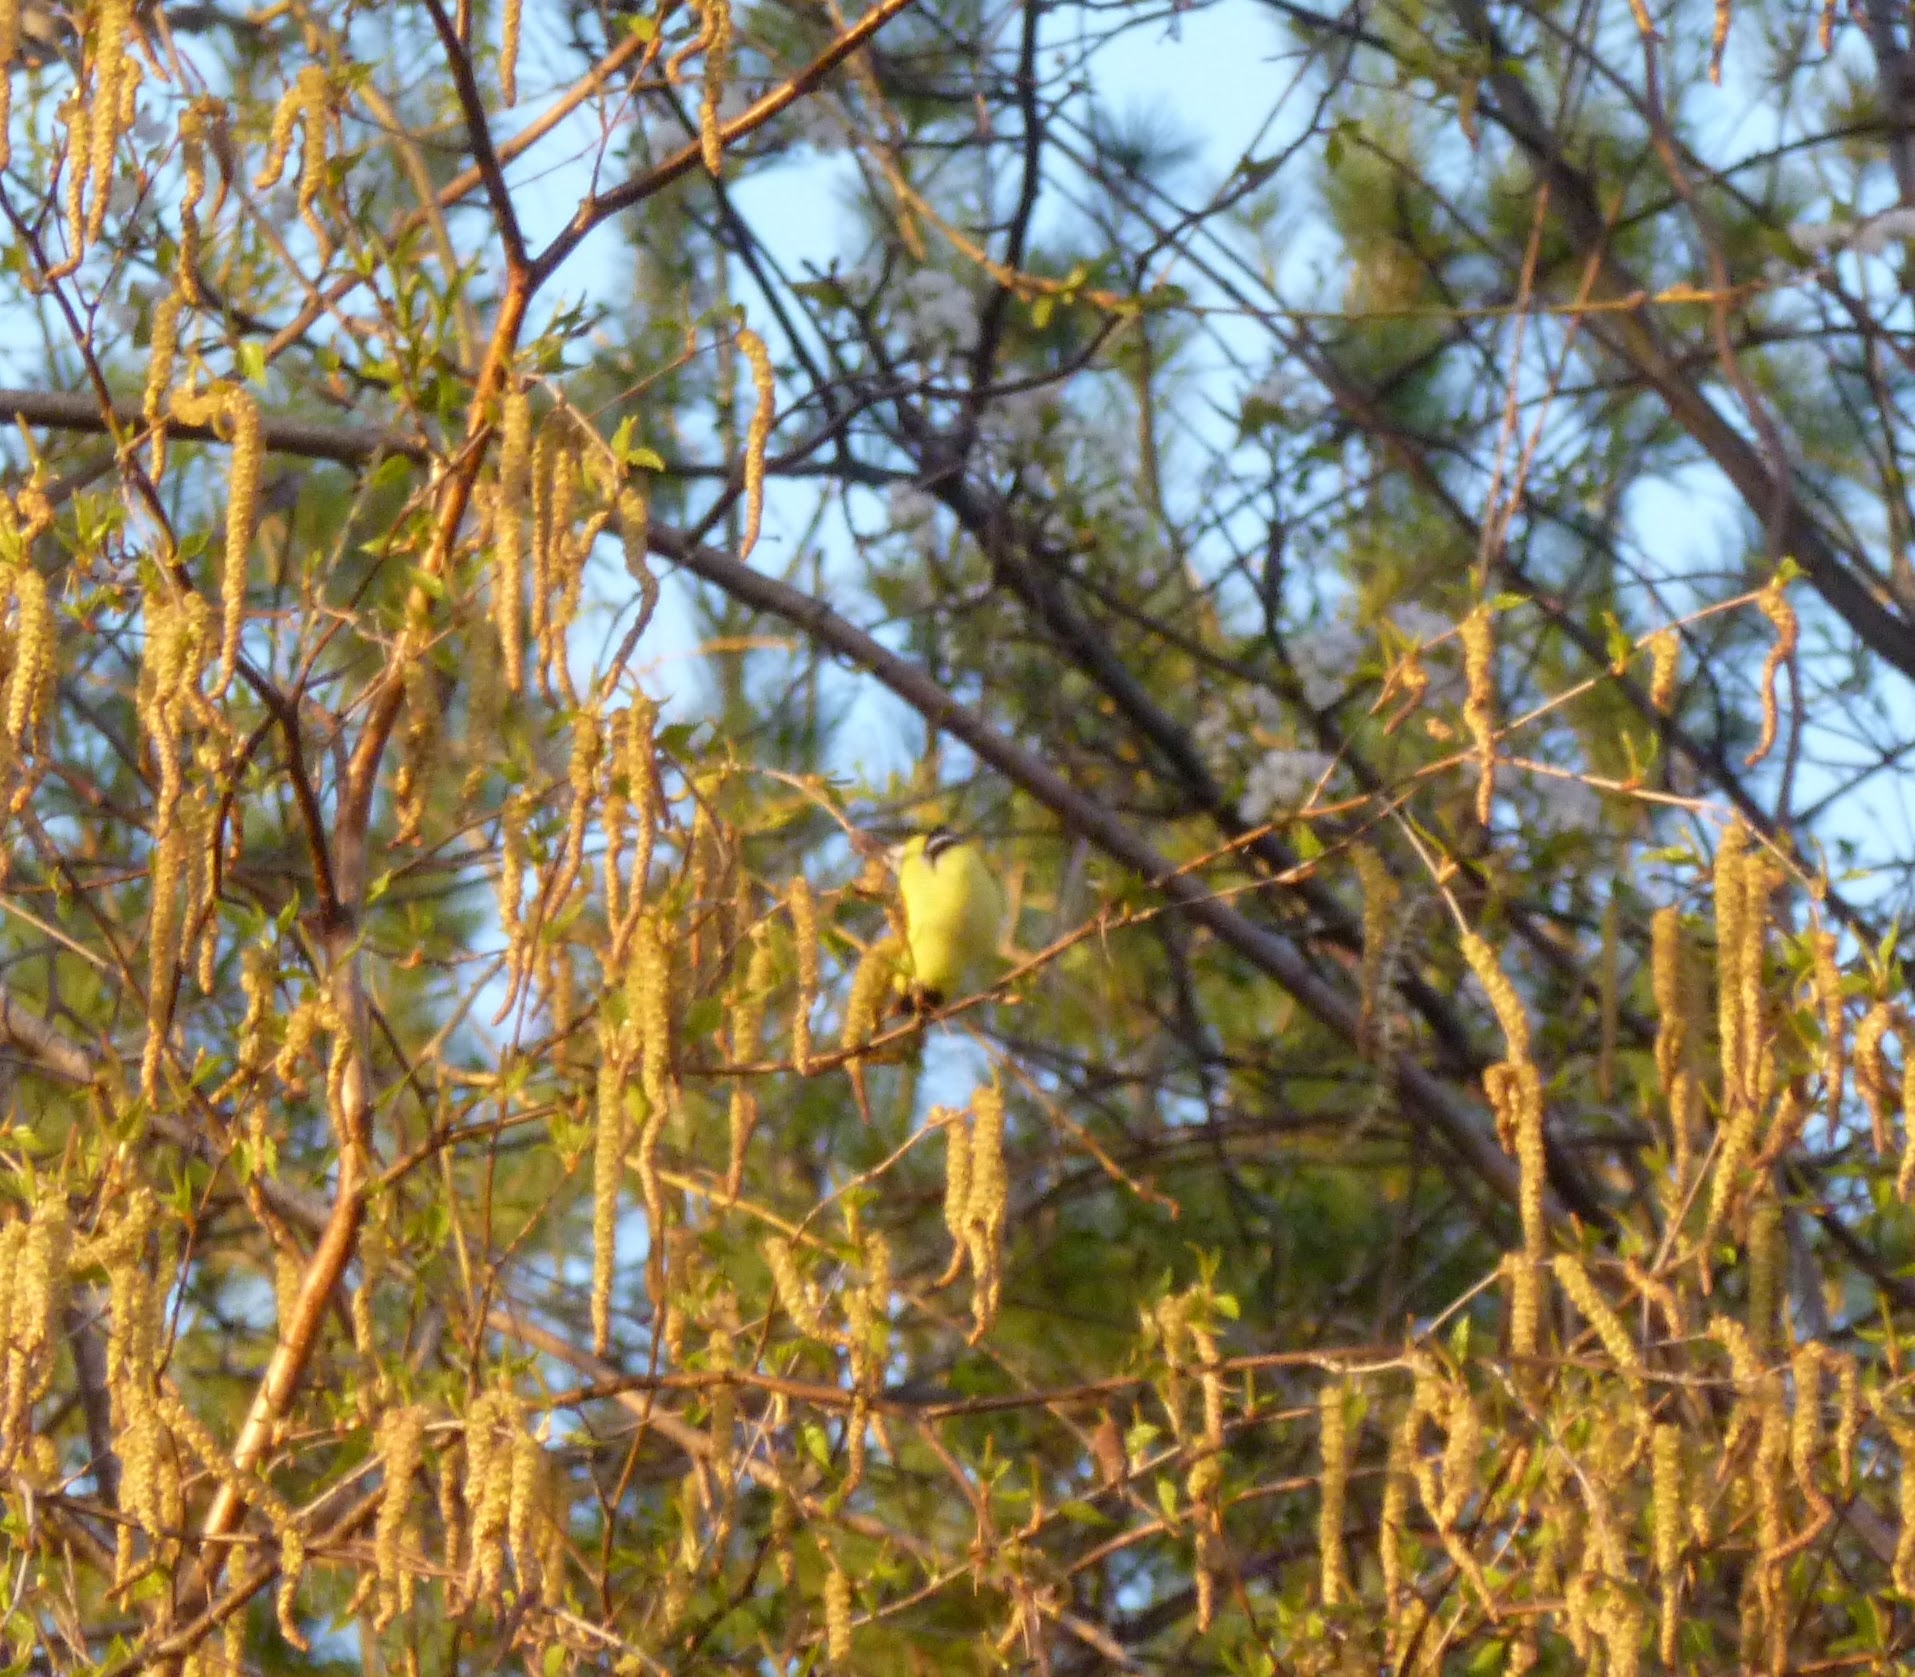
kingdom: Animalia
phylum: Chordata
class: Aves
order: Passeriformes
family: Fringillidae
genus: Spinus
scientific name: Spinus tristis
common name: American goldfinch
